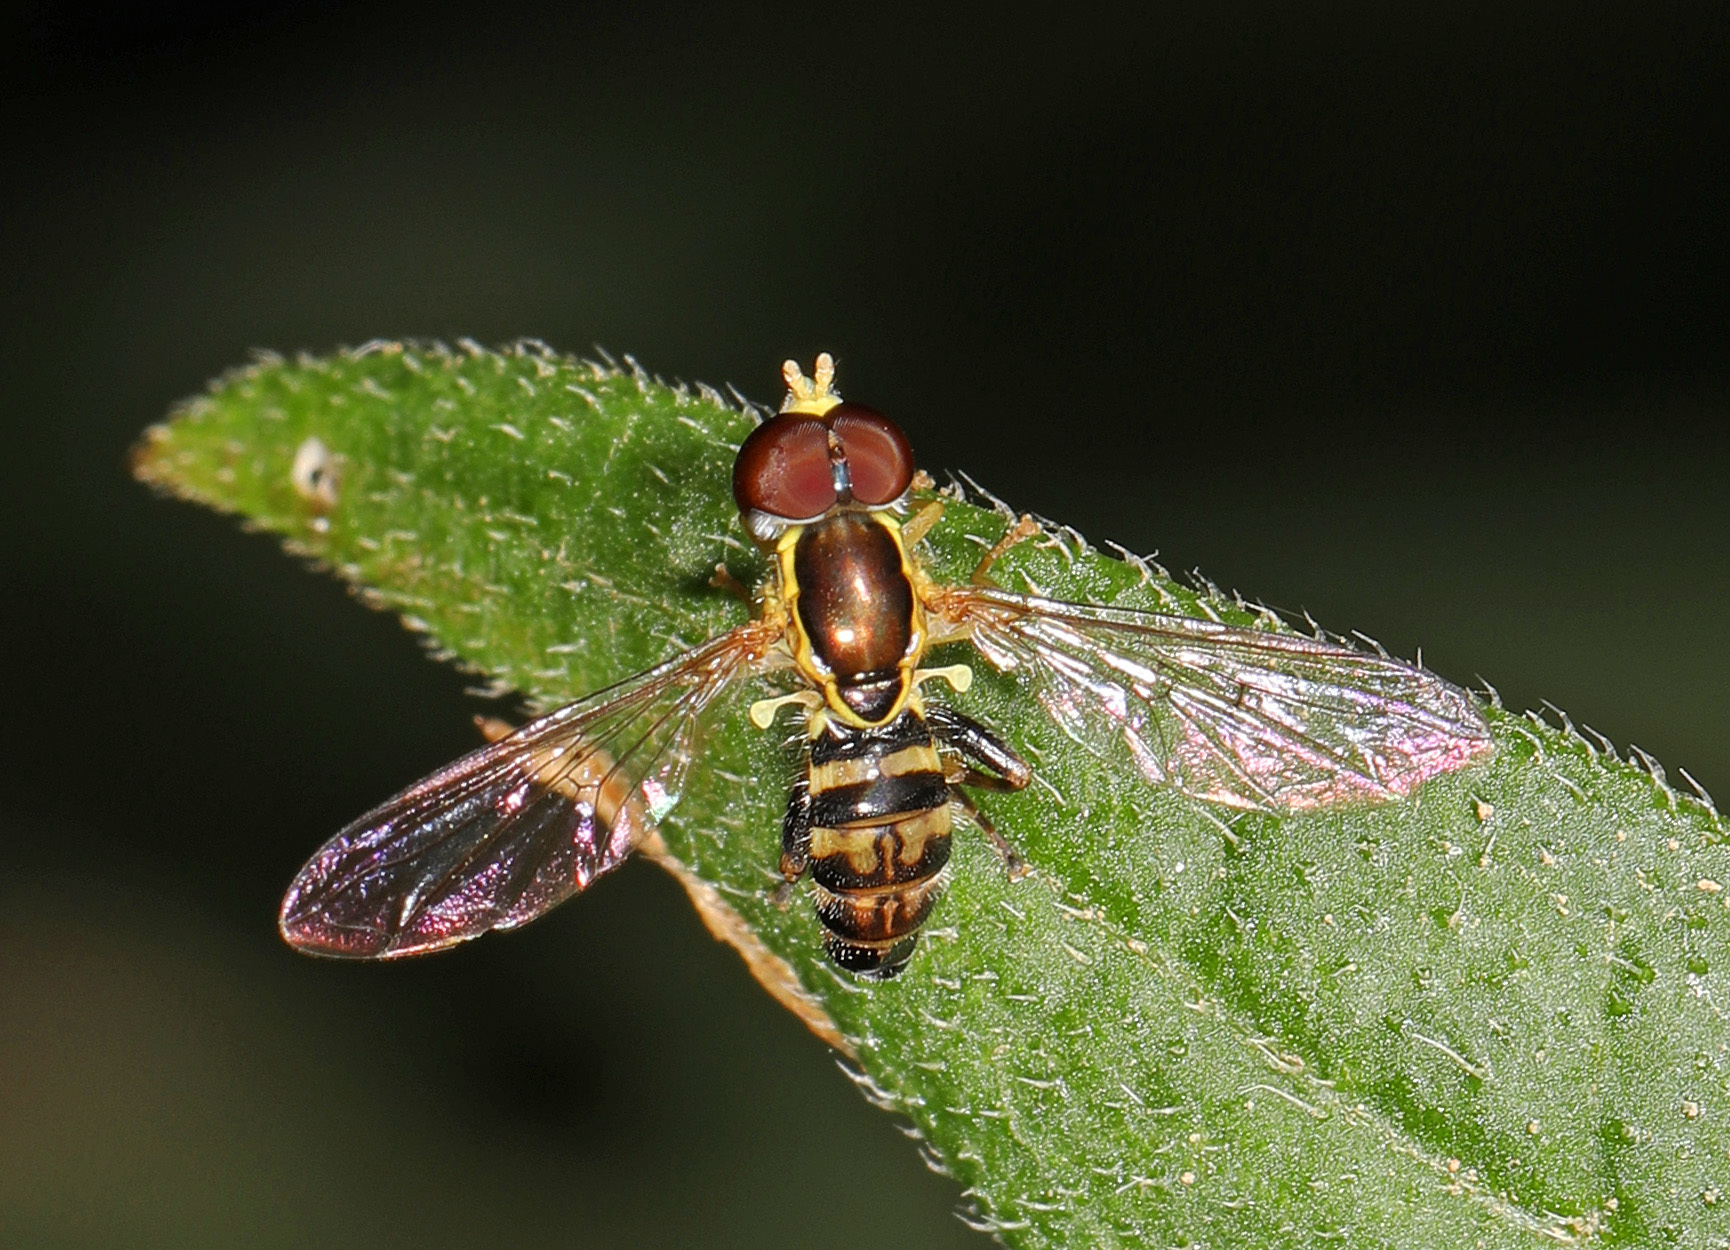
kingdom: Animalia
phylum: Arthropoda
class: Insecta
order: Diptera
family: Syrphidae
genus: Toxomerus
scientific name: Toxomerus geminatus
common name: Eastern calligrapher
